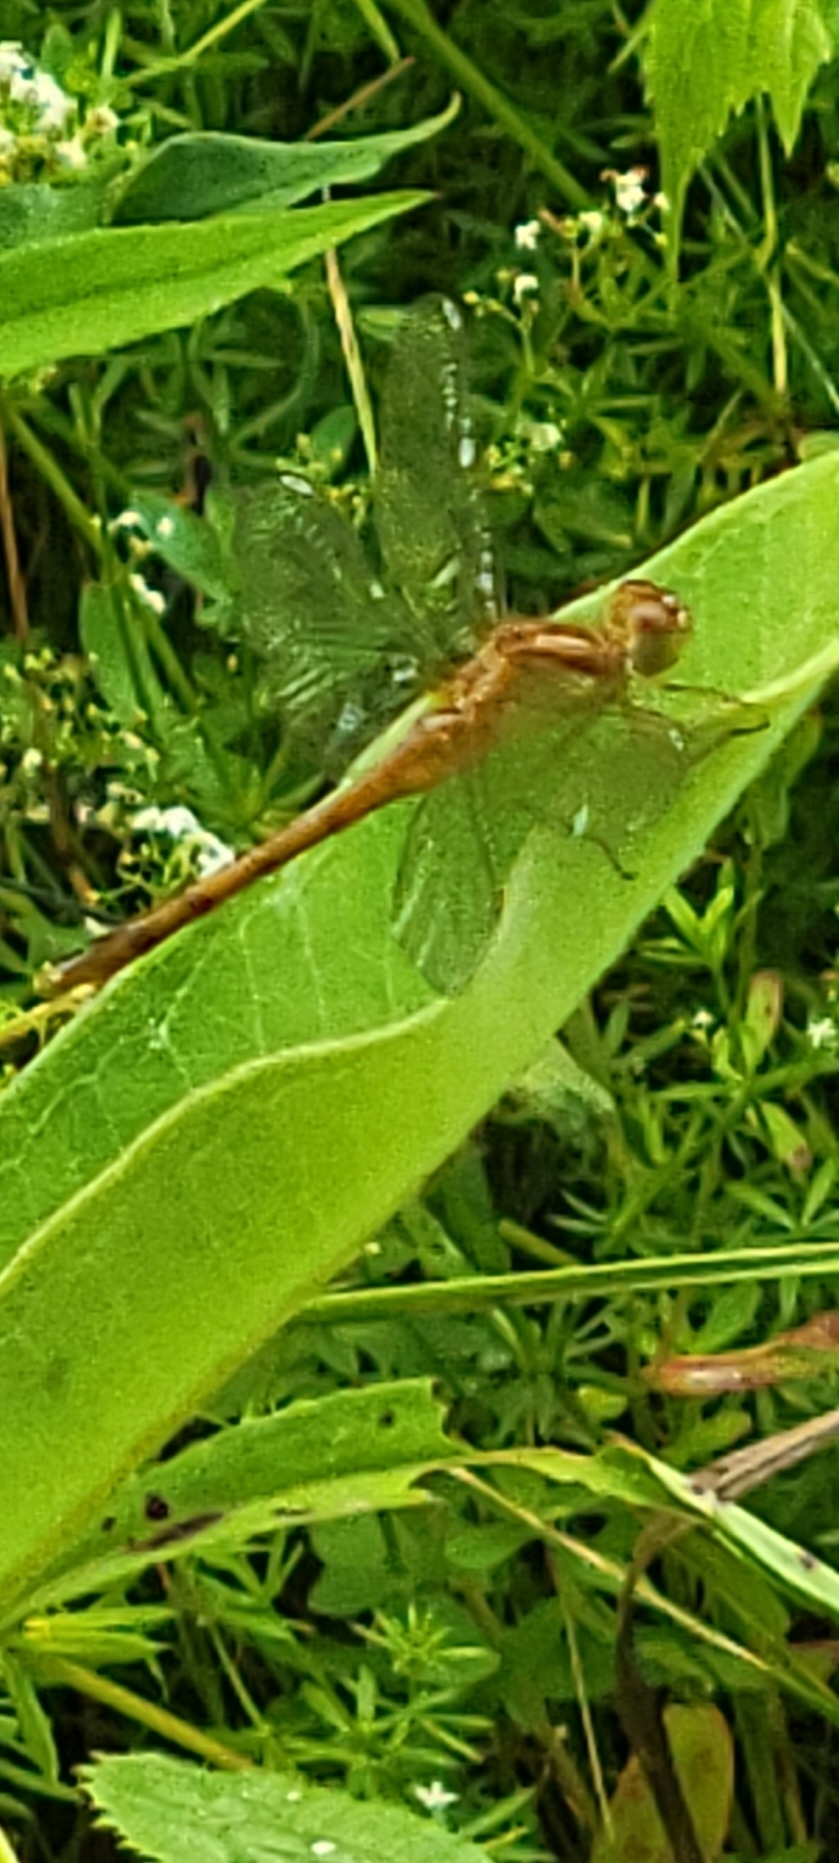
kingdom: Animalia
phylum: Arthropoda
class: Insecta
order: Odonata
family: Libellulidae
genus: Sympetrum
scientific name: Sympetrum vicinum
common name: Autumn meadowhawk
